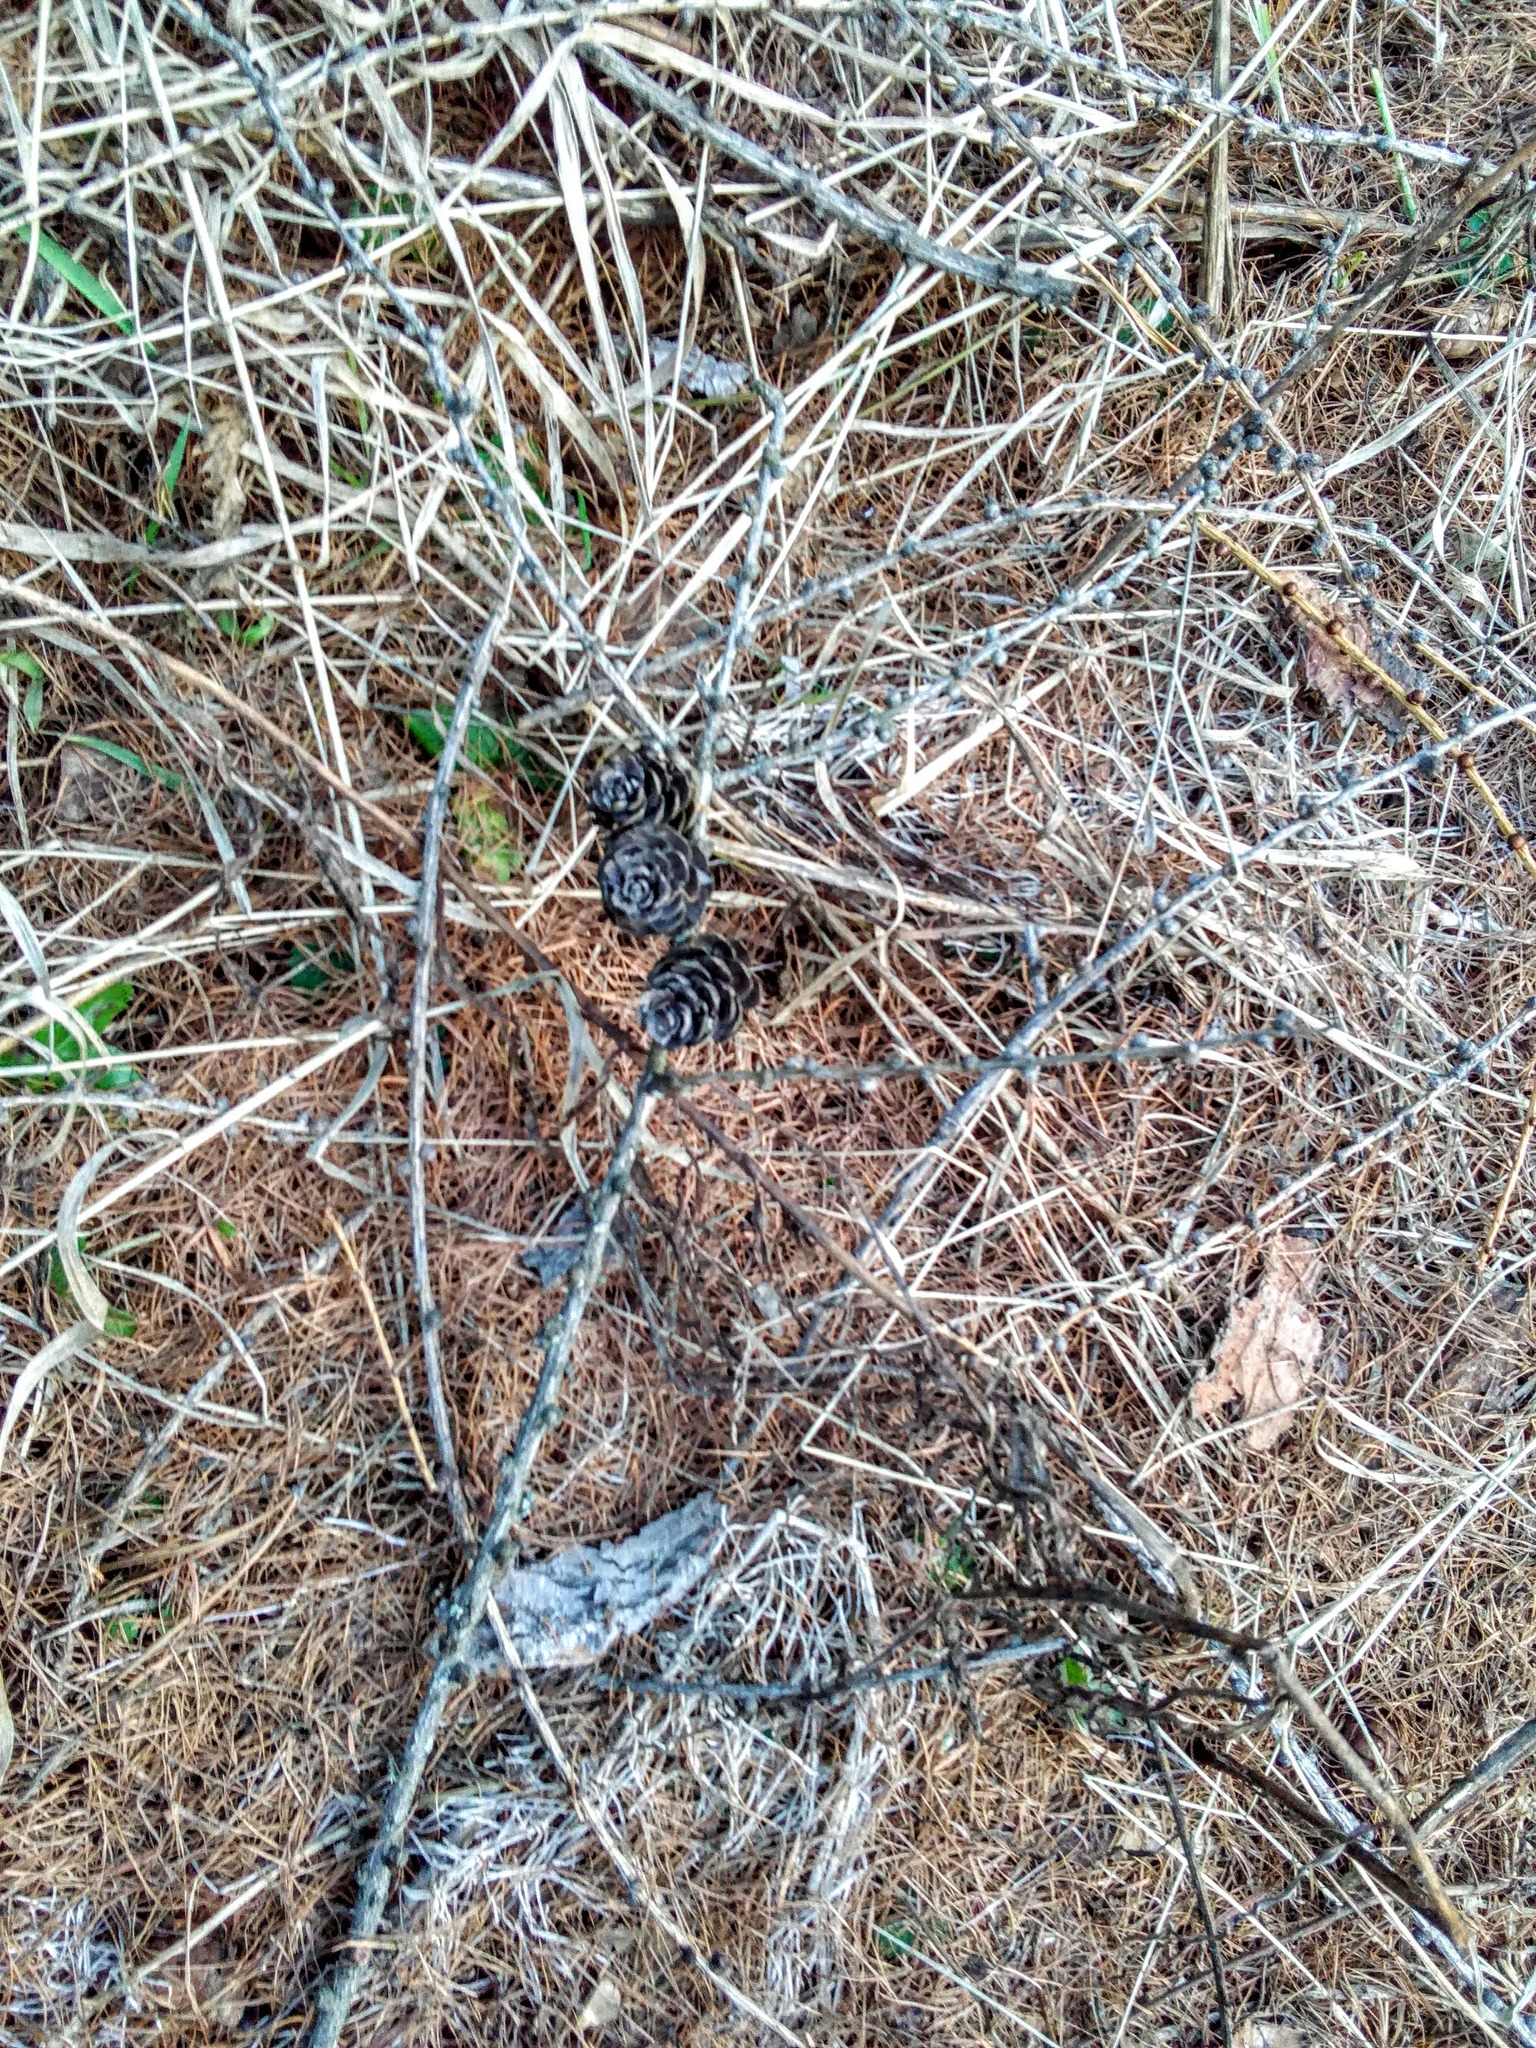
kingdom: Plantae
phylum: Tracheophyta
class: Pinopsida
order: Pinales
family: Pinaceae
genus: Larix
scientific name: Larix sibirica
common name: Siberian larch
